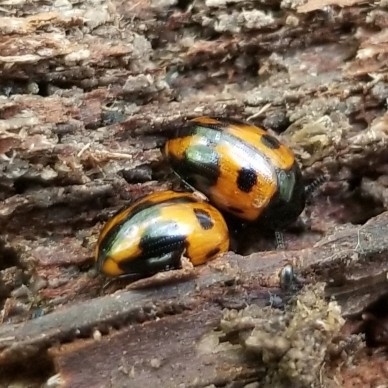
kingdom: Animalia
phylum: Arthropoda
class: Insecta
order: Coleoptera
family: Tenebrionidae
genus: Diaperis
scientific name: Diaperis maculata
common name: Darkling beetle
